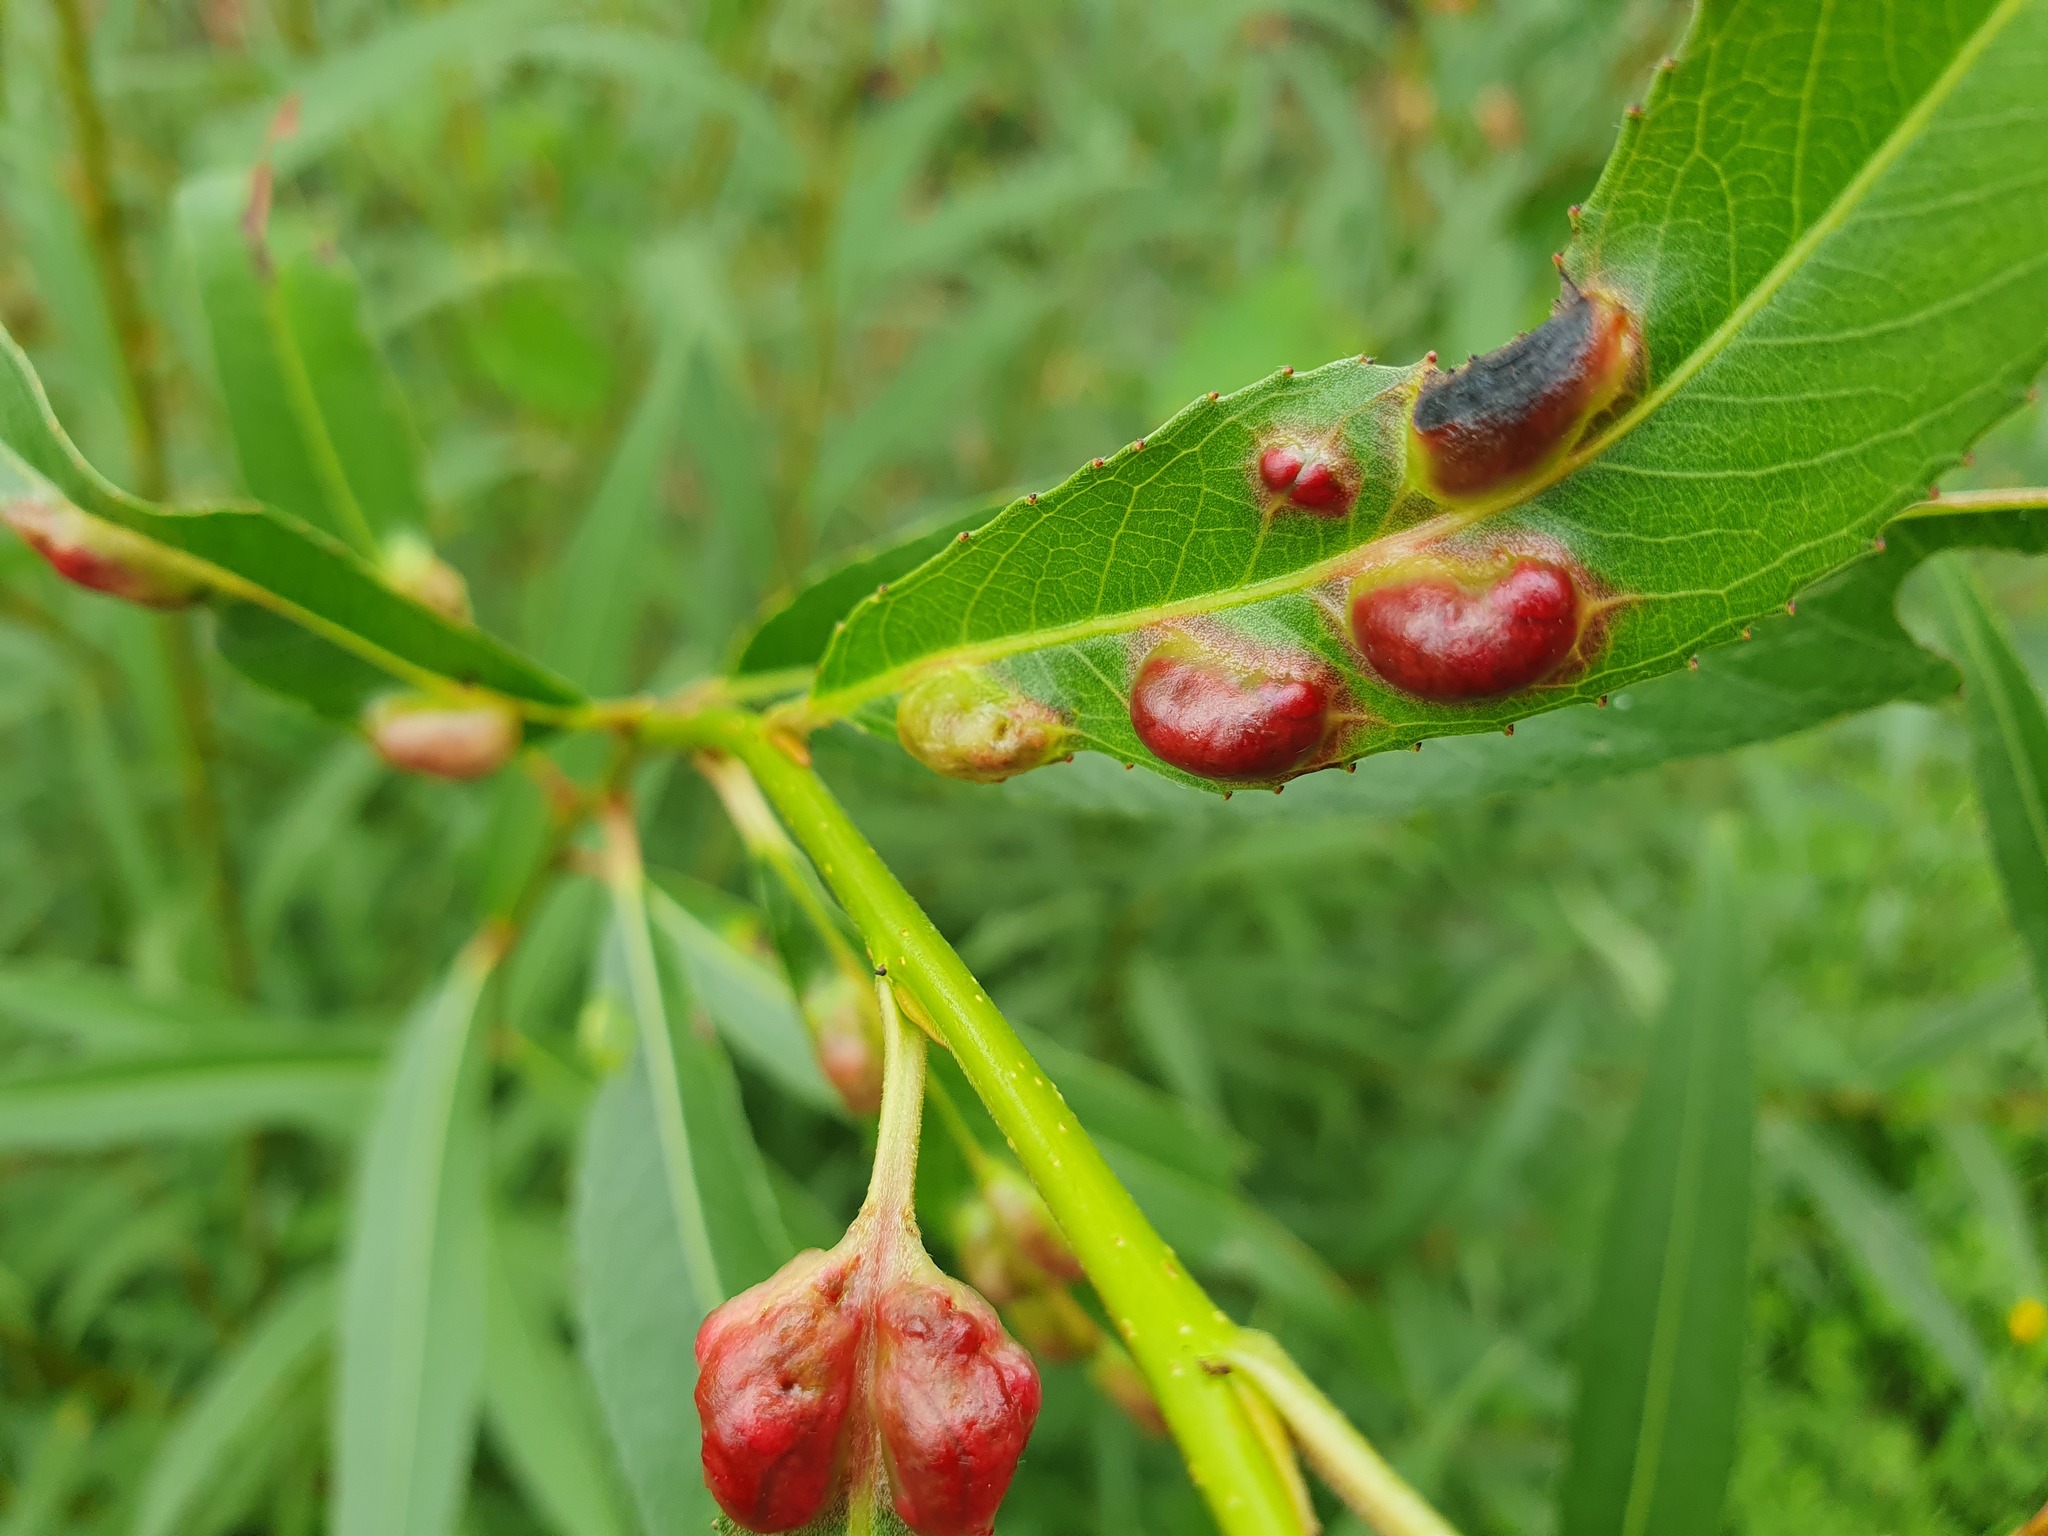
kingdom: Animalia
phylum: Arthropoda
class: Insecta
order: Hymenoptera
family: Tenthredinidae
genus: Pontania
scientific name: Pontania proxima
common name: Common sawfly
